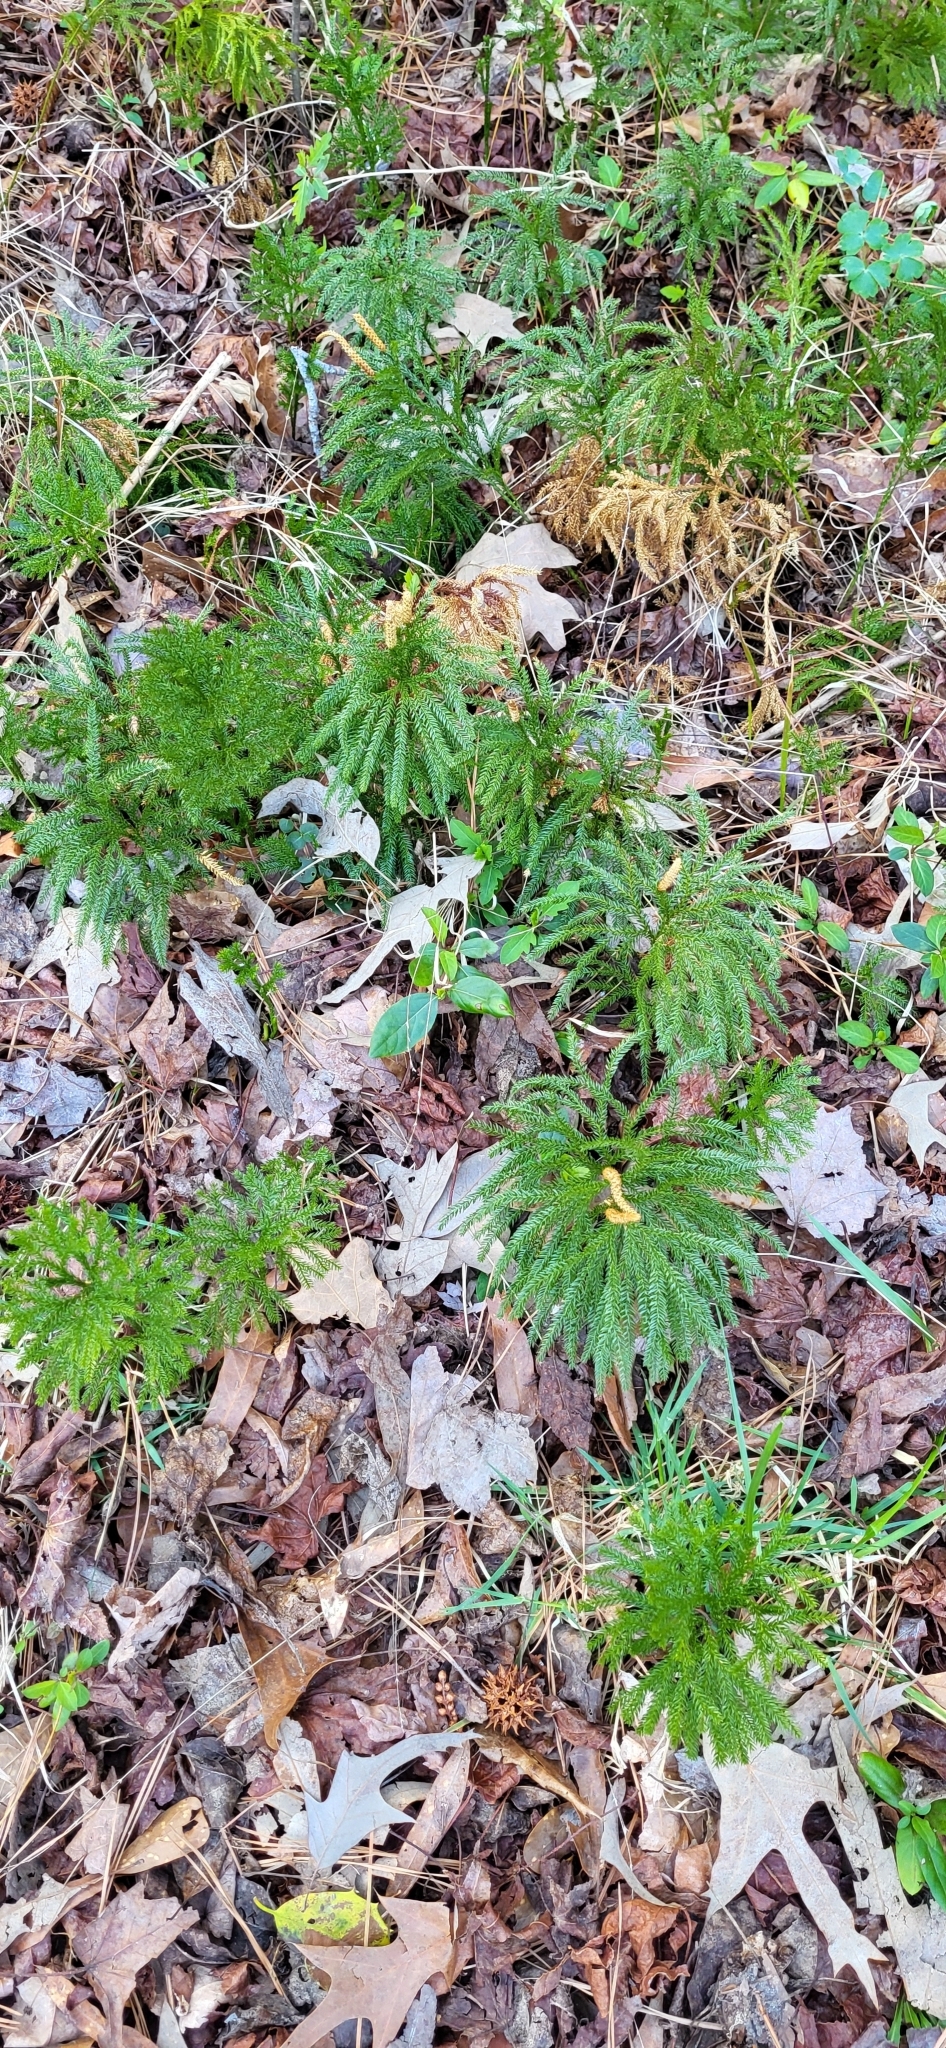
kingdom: Plantae
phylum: Tracheophyta
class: Lycopodiopsida
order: Lycopodiales
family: Lycopodiaceae
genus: Dendrolycopodium
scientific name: Dendrolycopodium obscurum
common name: Common ground-pine
